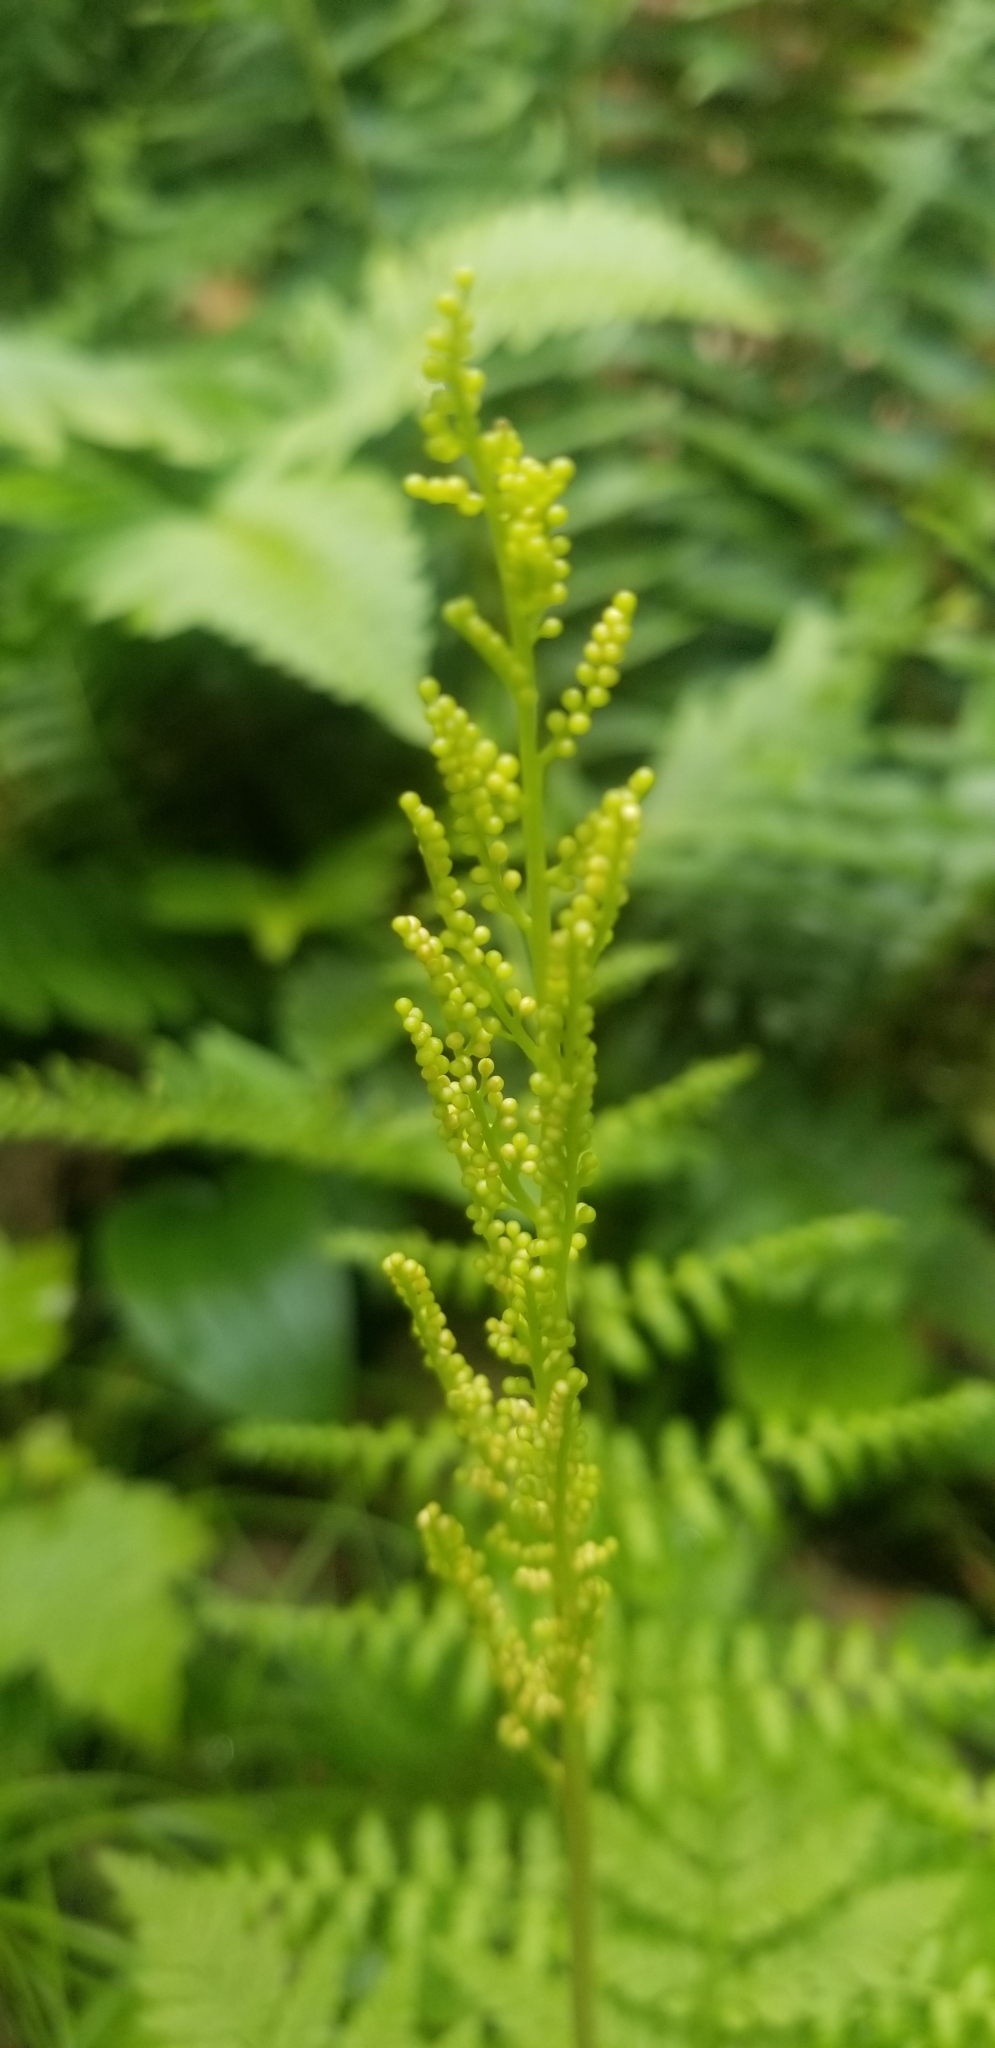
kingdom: Plantae
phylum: Tracheophyta
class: Polypodiopsida
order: Ophioglossales
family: Ophioglossaceae
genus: Botrypus
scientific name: Botrypus virginianus
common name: Common grapefern
